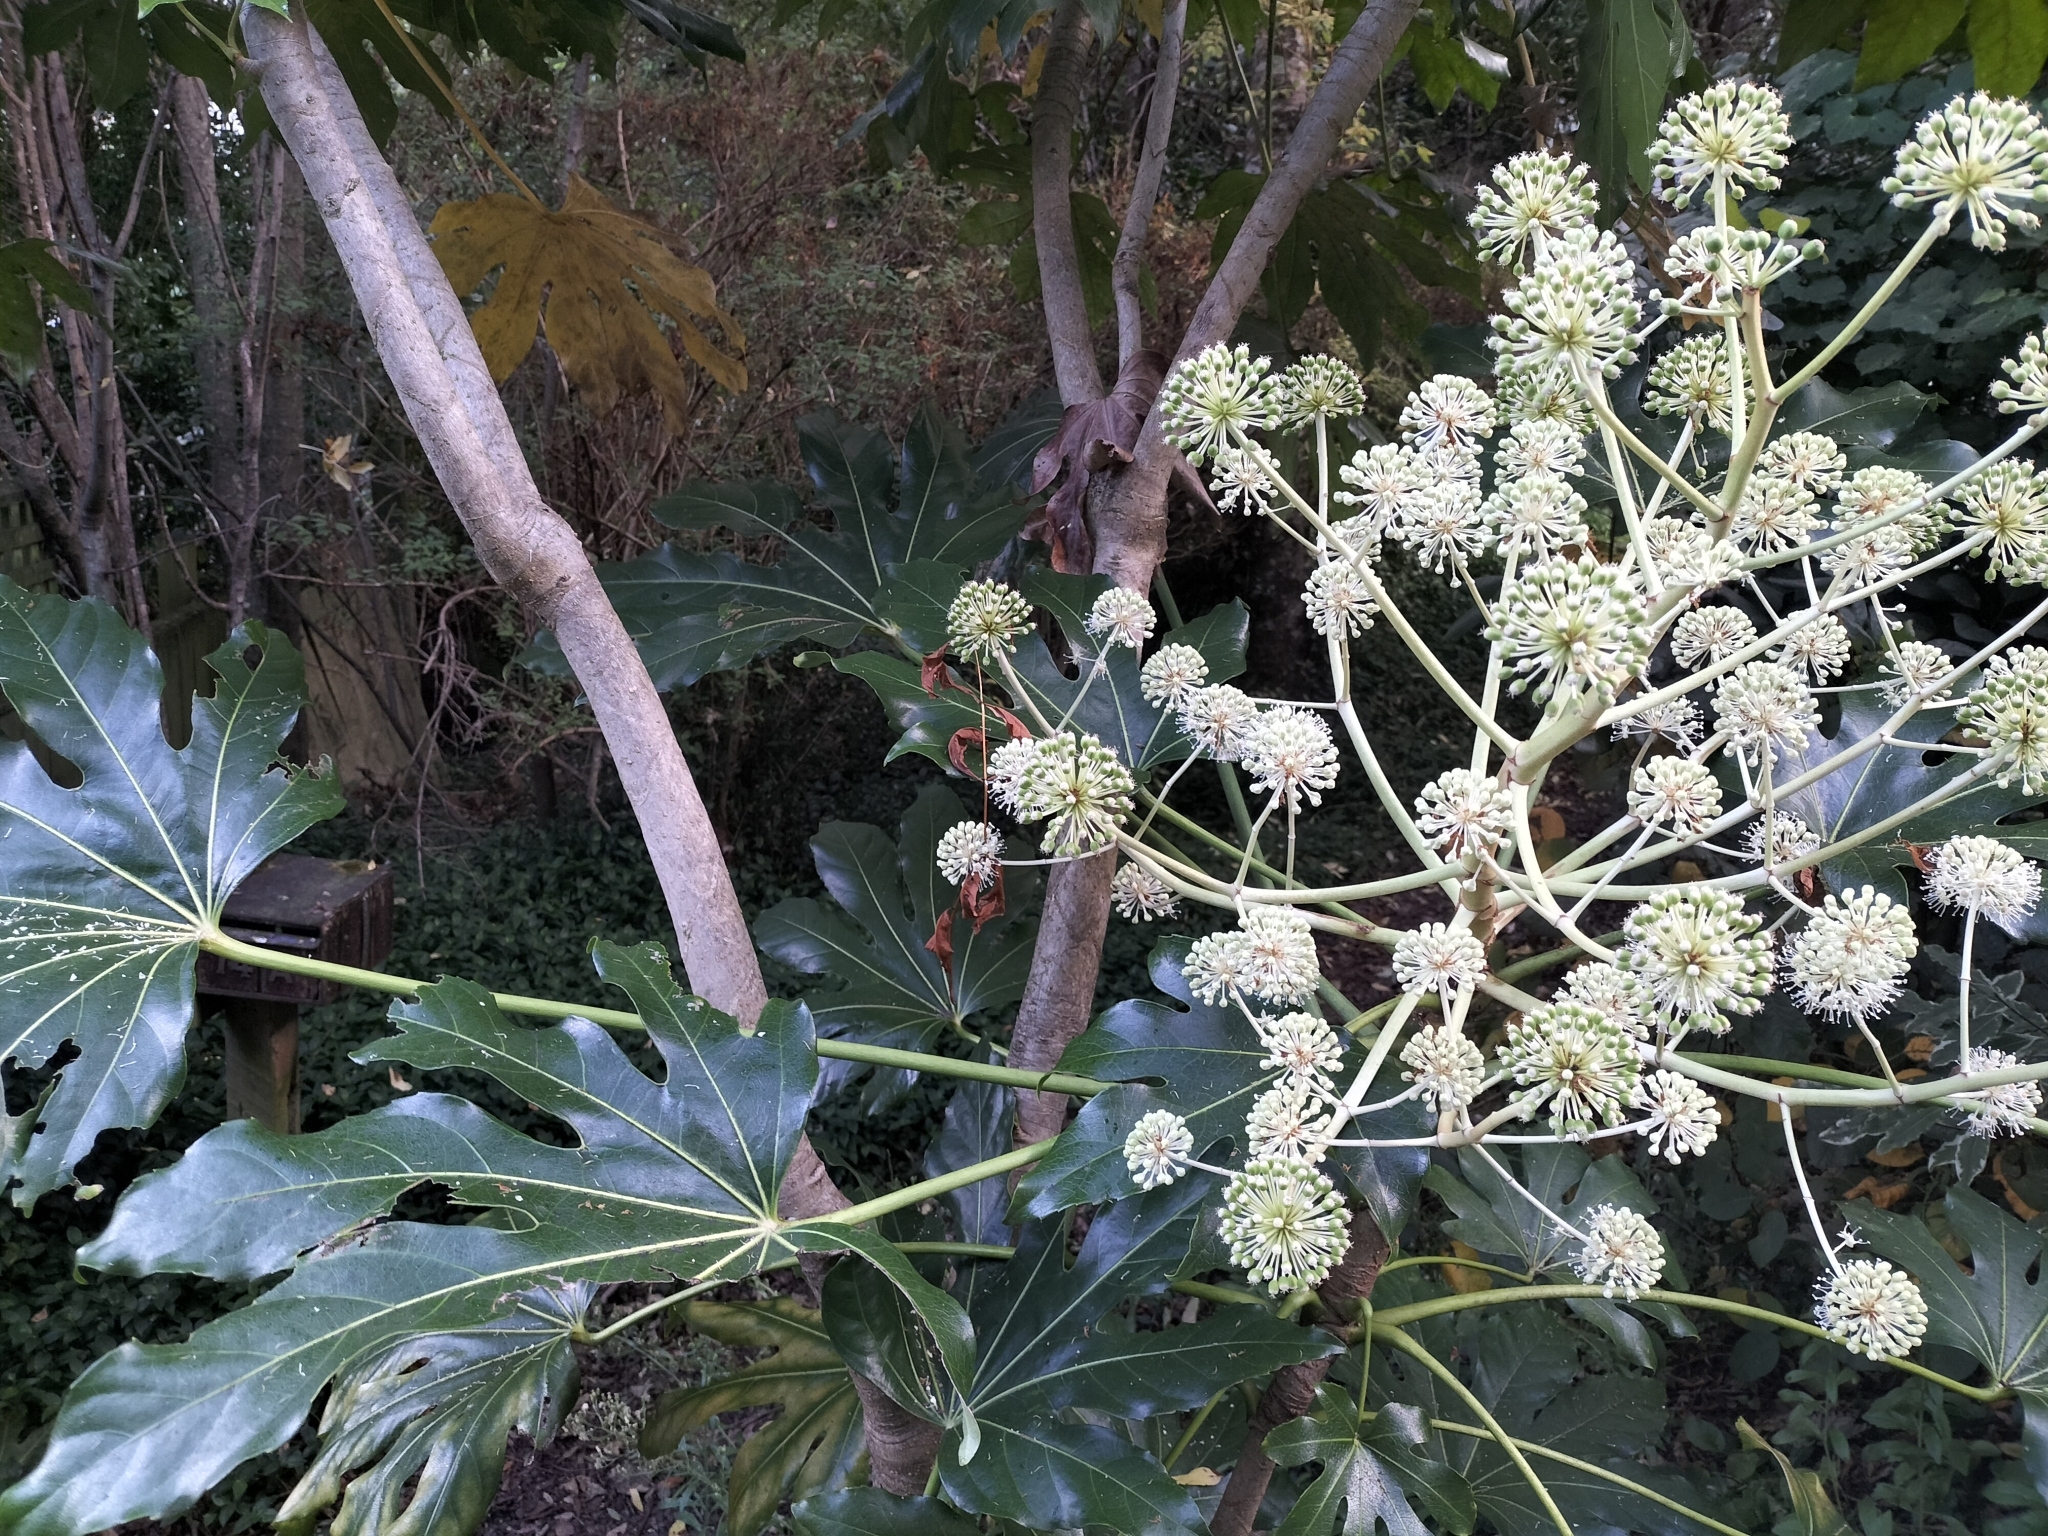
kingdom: Plantae
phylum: Tracheophyta
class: Magnoliopsida
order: Apiales
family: Araliaceae
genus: Fatsia
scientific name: Fatsia japonica
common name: Fatsia
